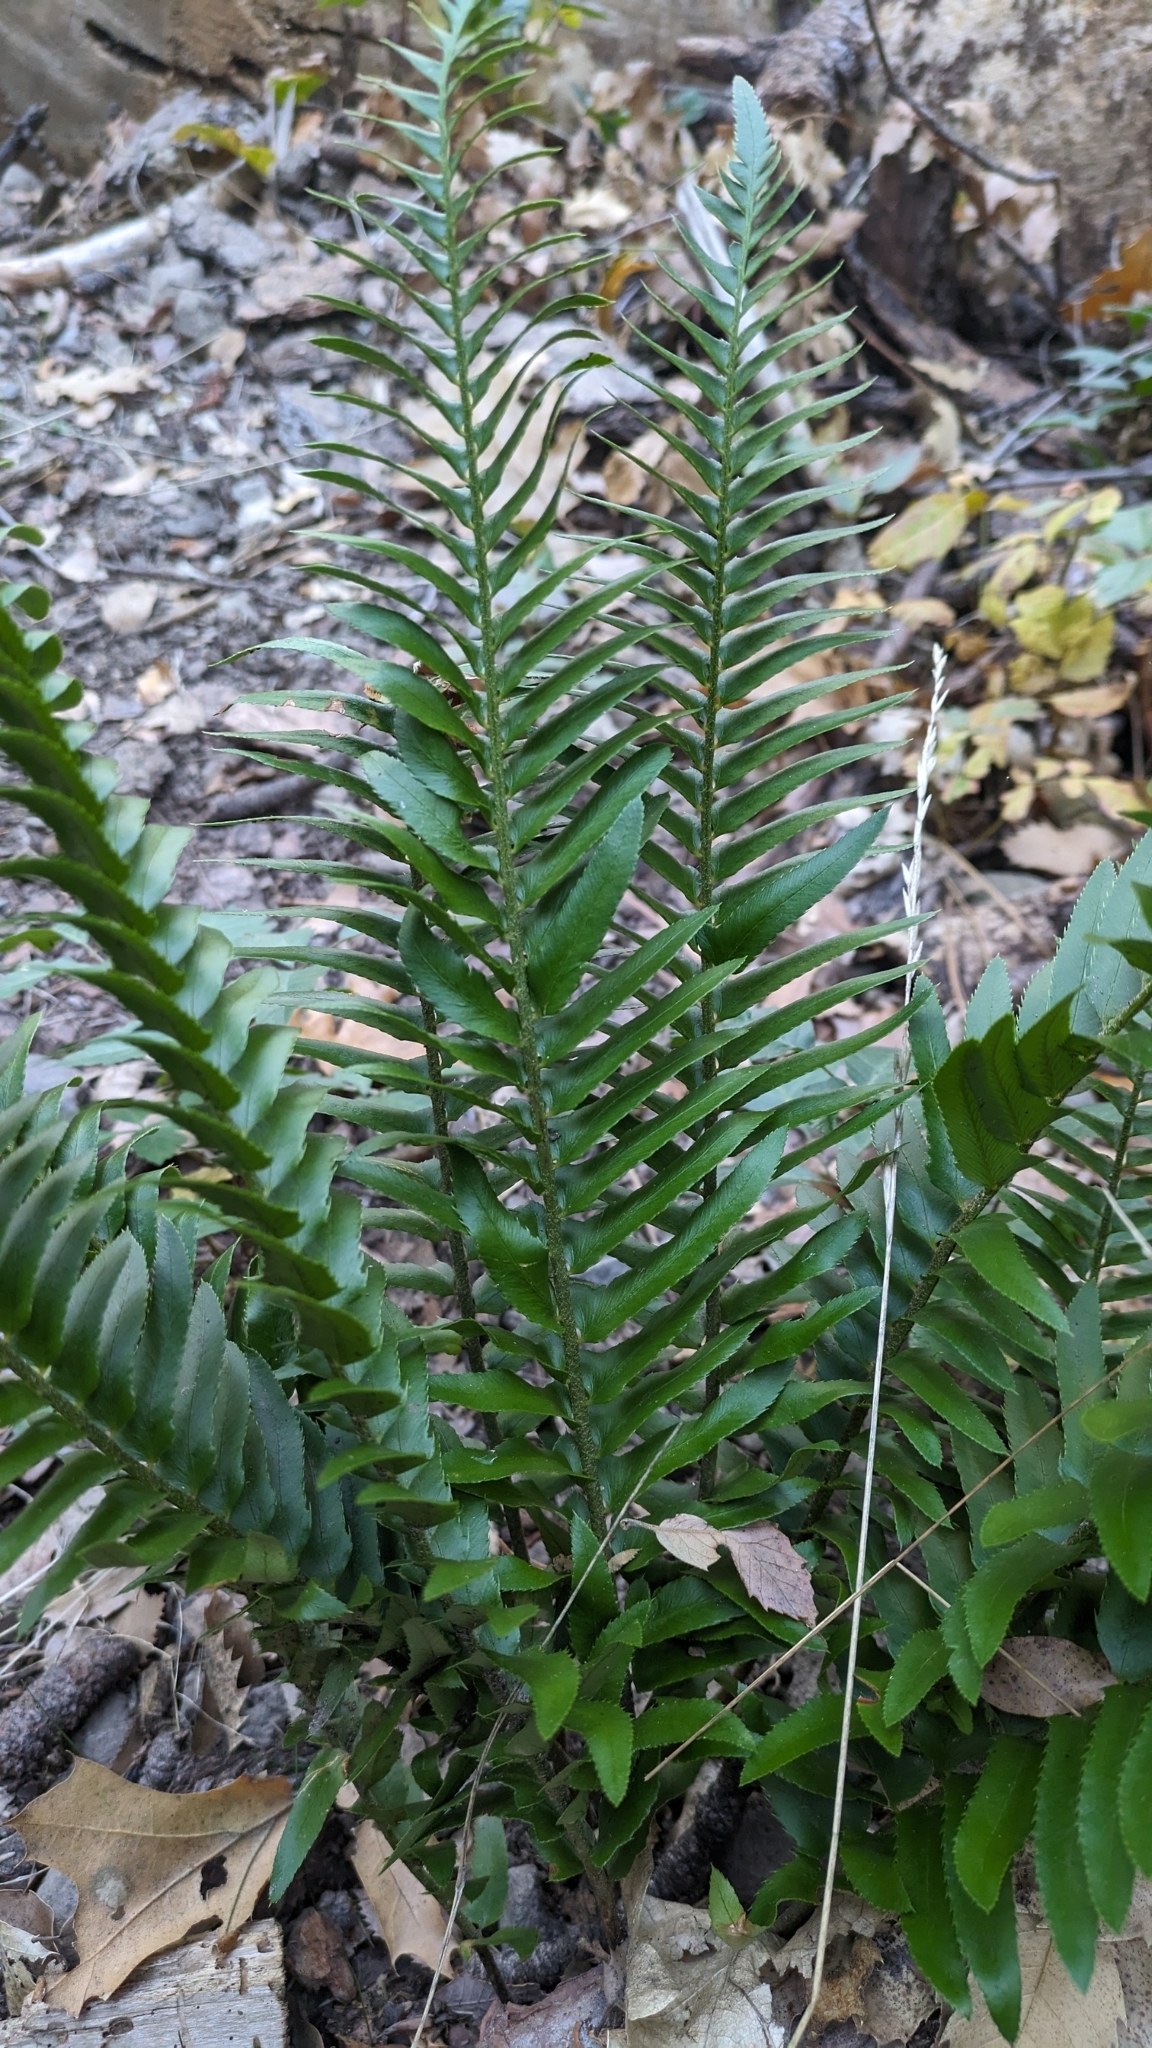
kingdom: Plantae
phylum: Tracheophyta
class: Polypodiopsida
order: Polypodiales
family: Dryopteridaceae
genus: Polystichum
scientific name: Polystichum imbricans
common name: Dwarf western sword fern
